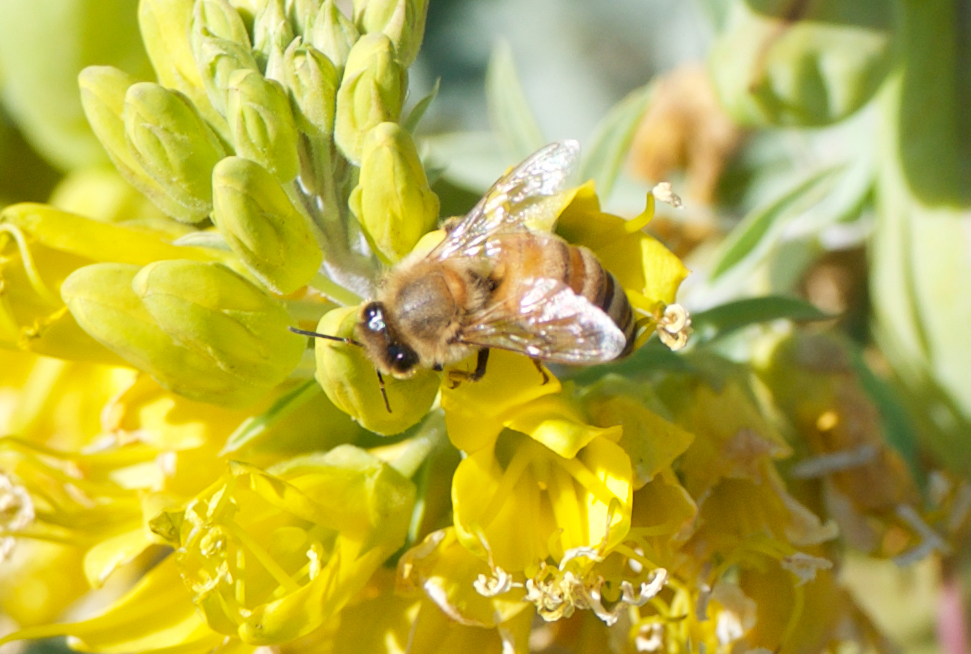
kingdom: Animalia
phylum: Arthropoda
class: Insecta
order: Hymenoptera
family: Apidae
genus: Apis
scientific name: Apis mellifera
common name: Honey bee
